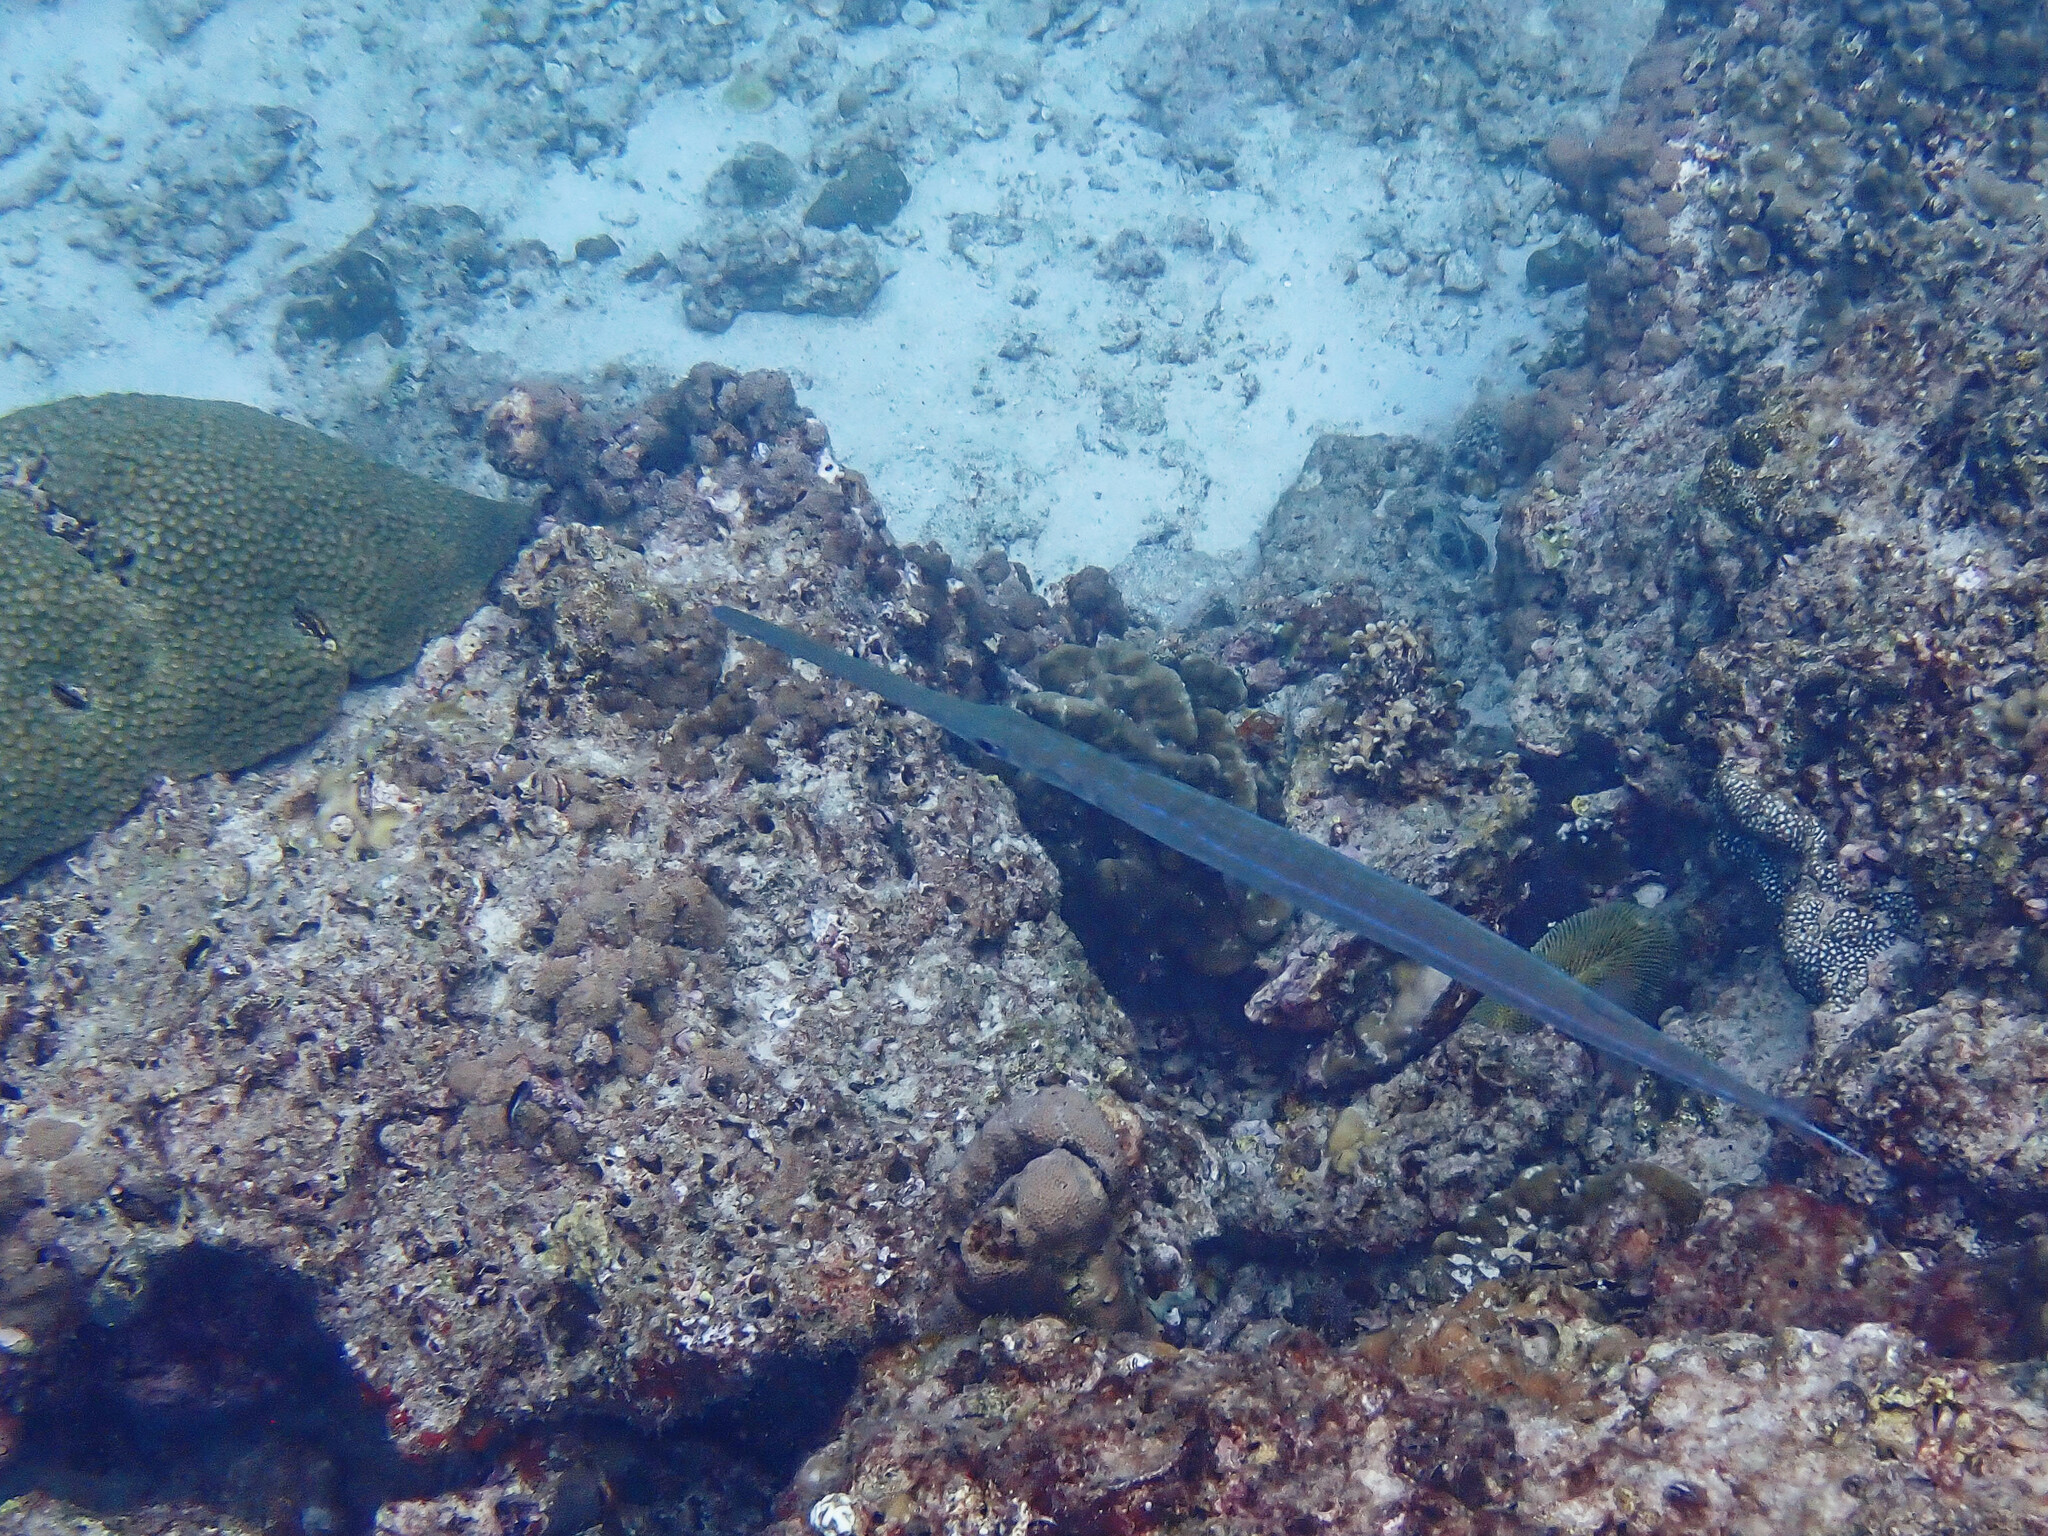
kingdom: Animalia
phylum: Chordata
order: Syngnathiformes
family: Fistulariidae
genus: Fistularia
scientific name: Fistularia commersonii
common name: Bluespotted cornetfish
